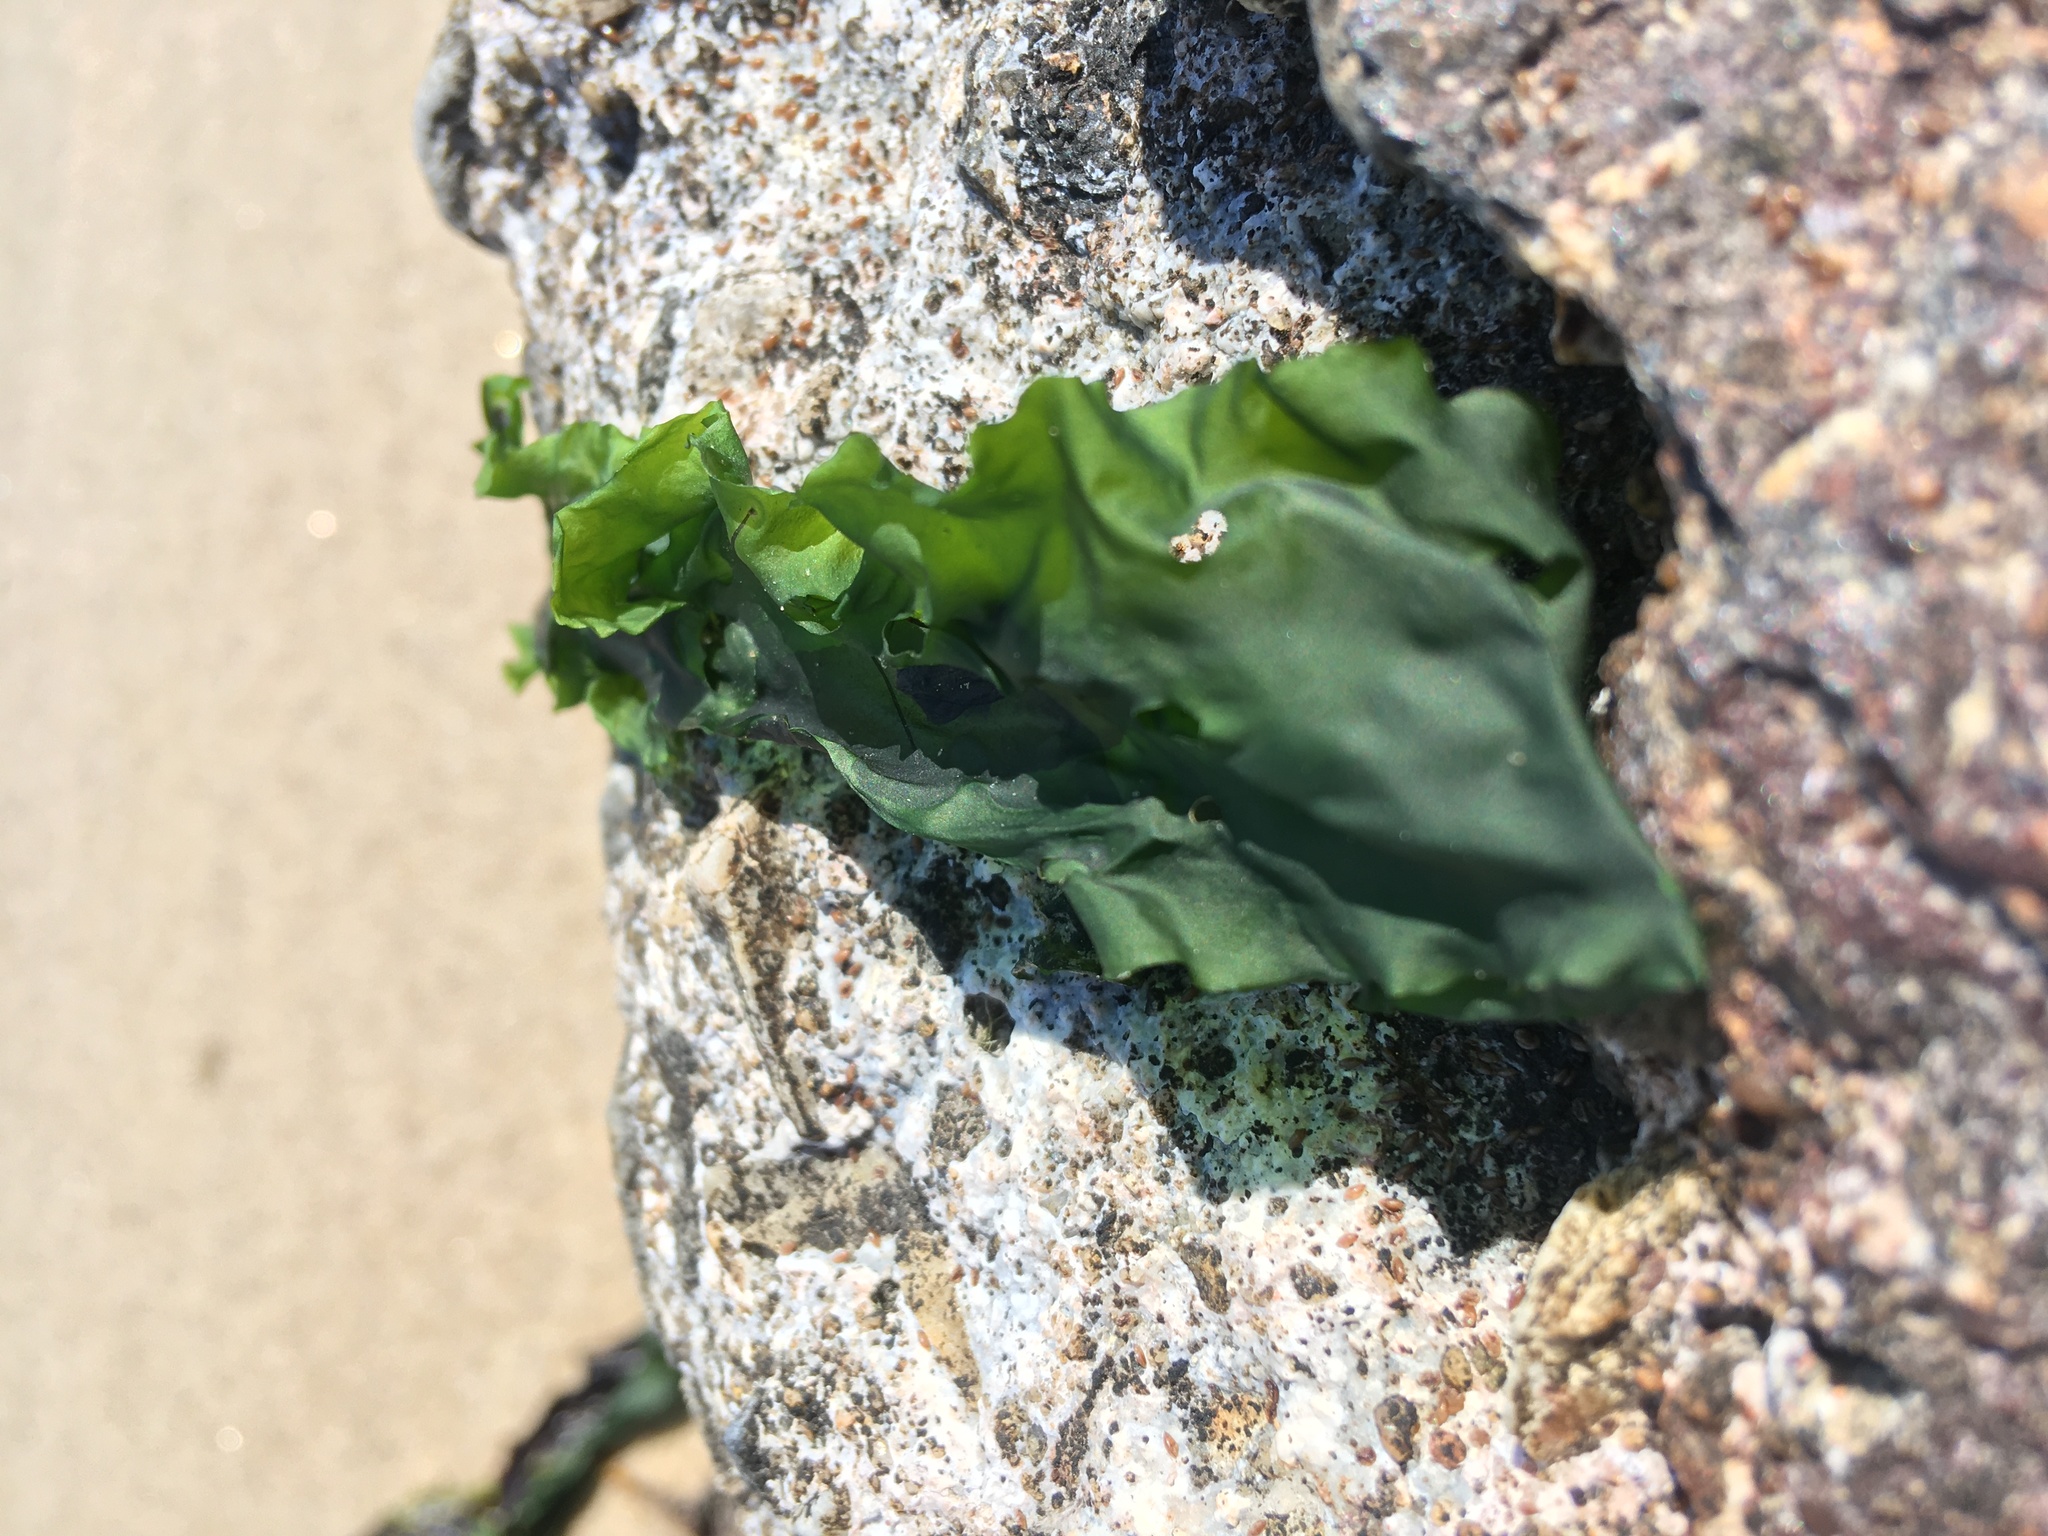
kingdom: Plantae
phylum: Chlorophyta
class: Ulvophyceae
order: Ulvales
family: Ulvaceae
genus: Ulva
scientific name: Ulva lactuca
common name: Sea lettuce
